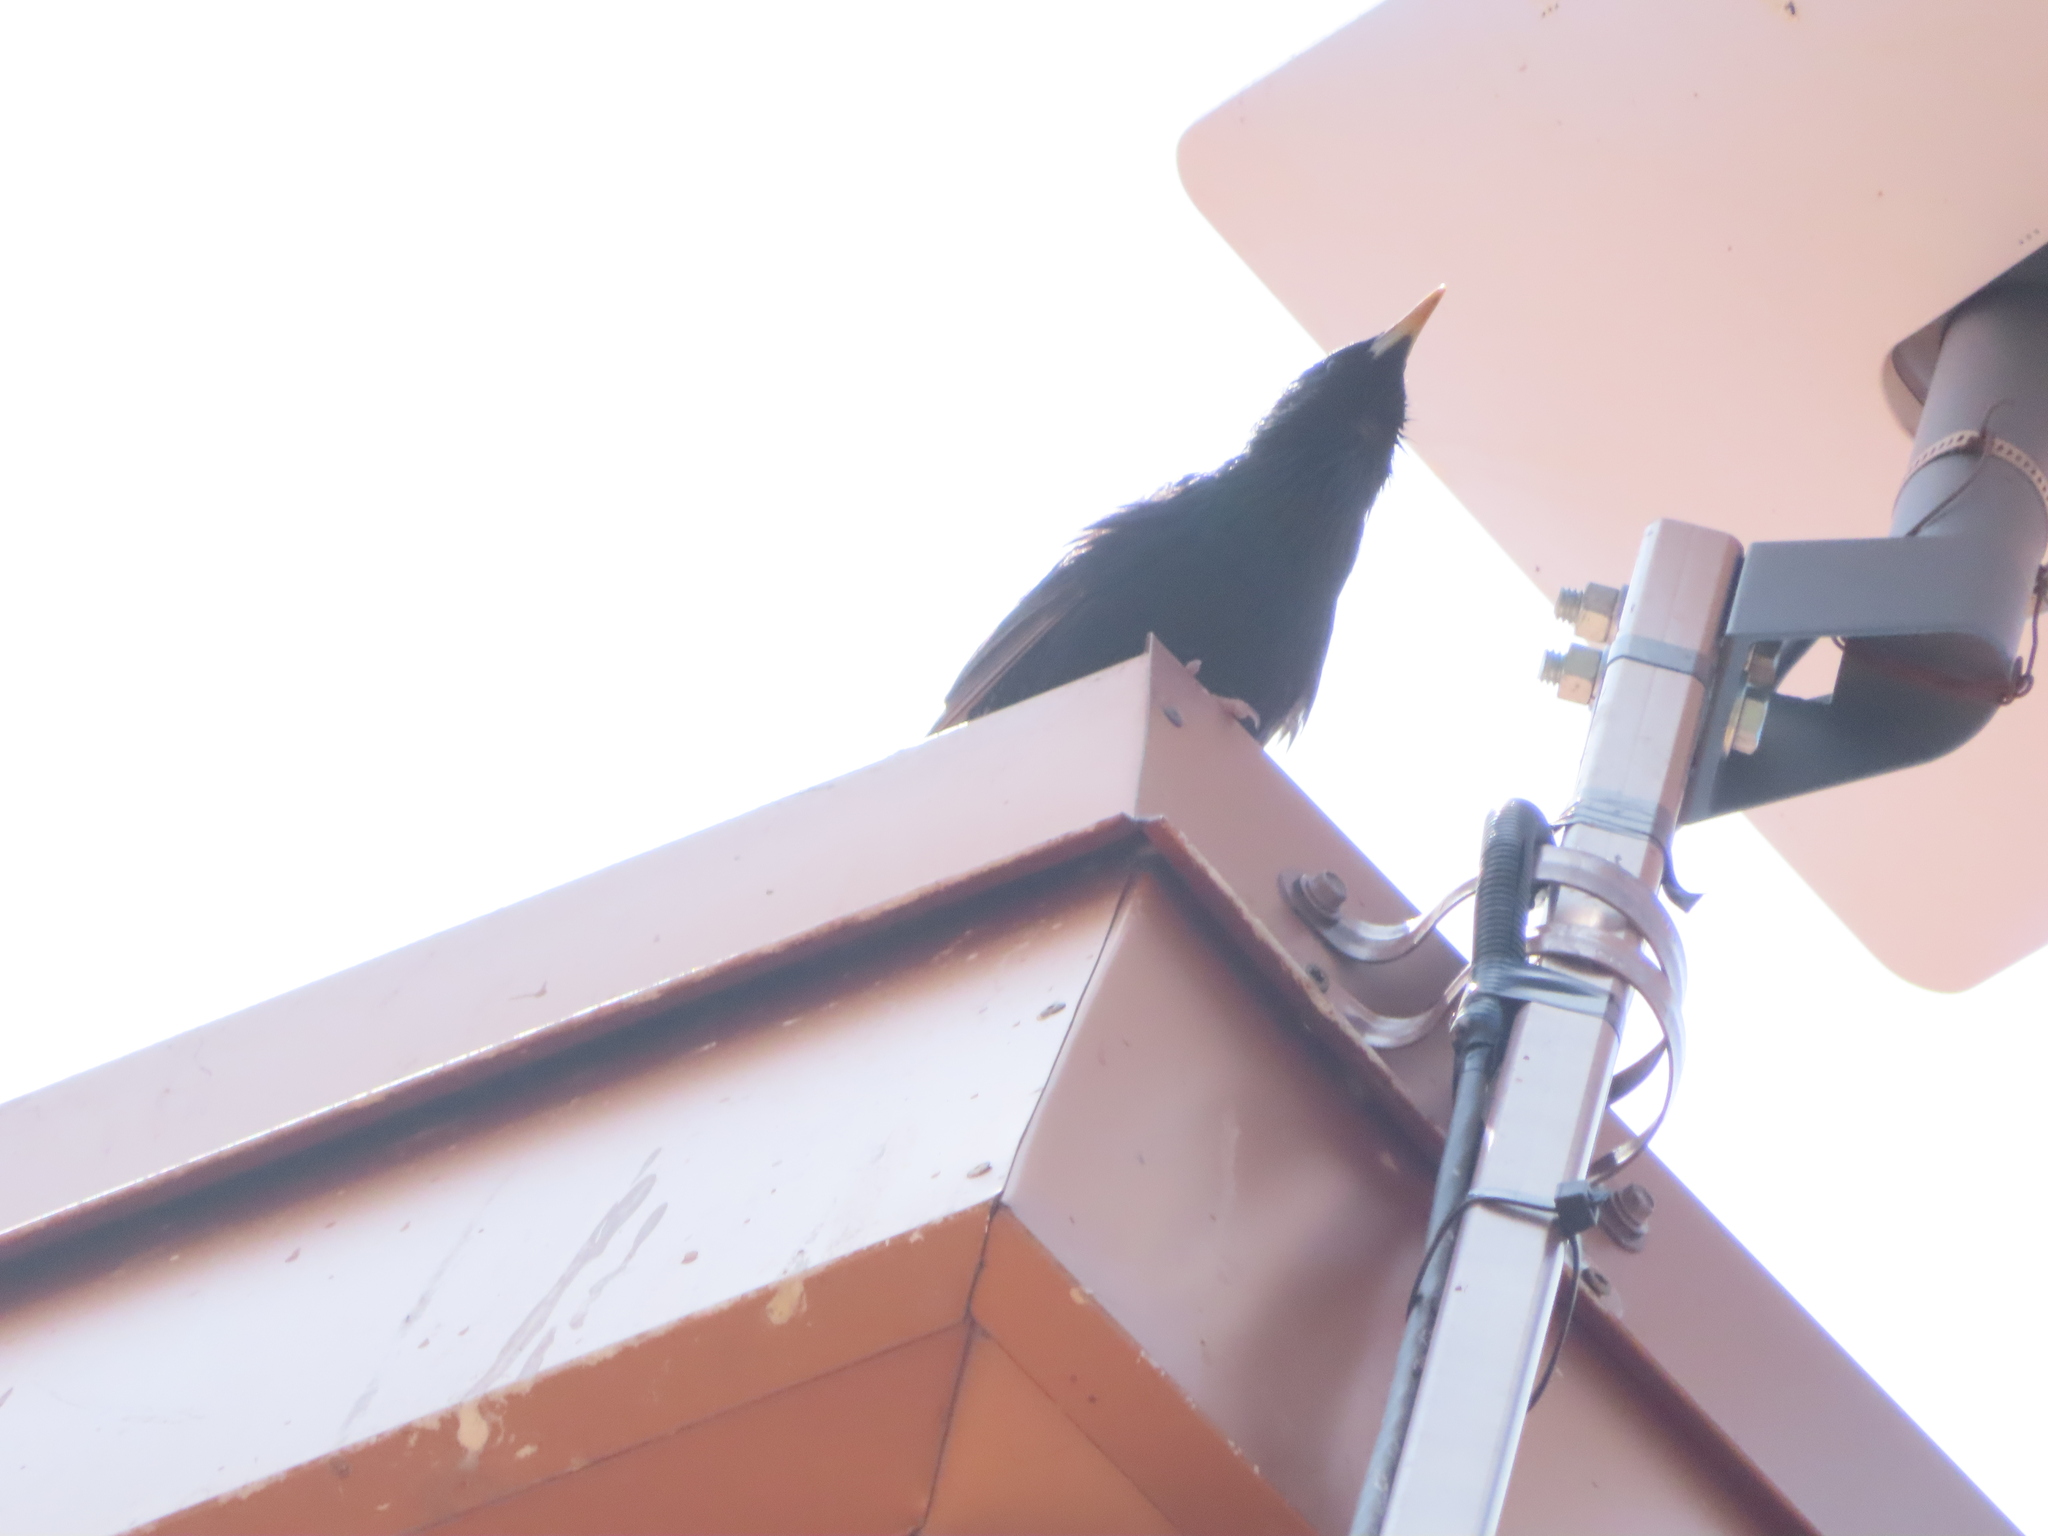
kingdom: Animalia
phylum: Chordata
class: Aves
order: Passeriformes
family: Sturnidae
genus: Sturnus
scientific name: Sturnus vulgaris
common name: Common starling
